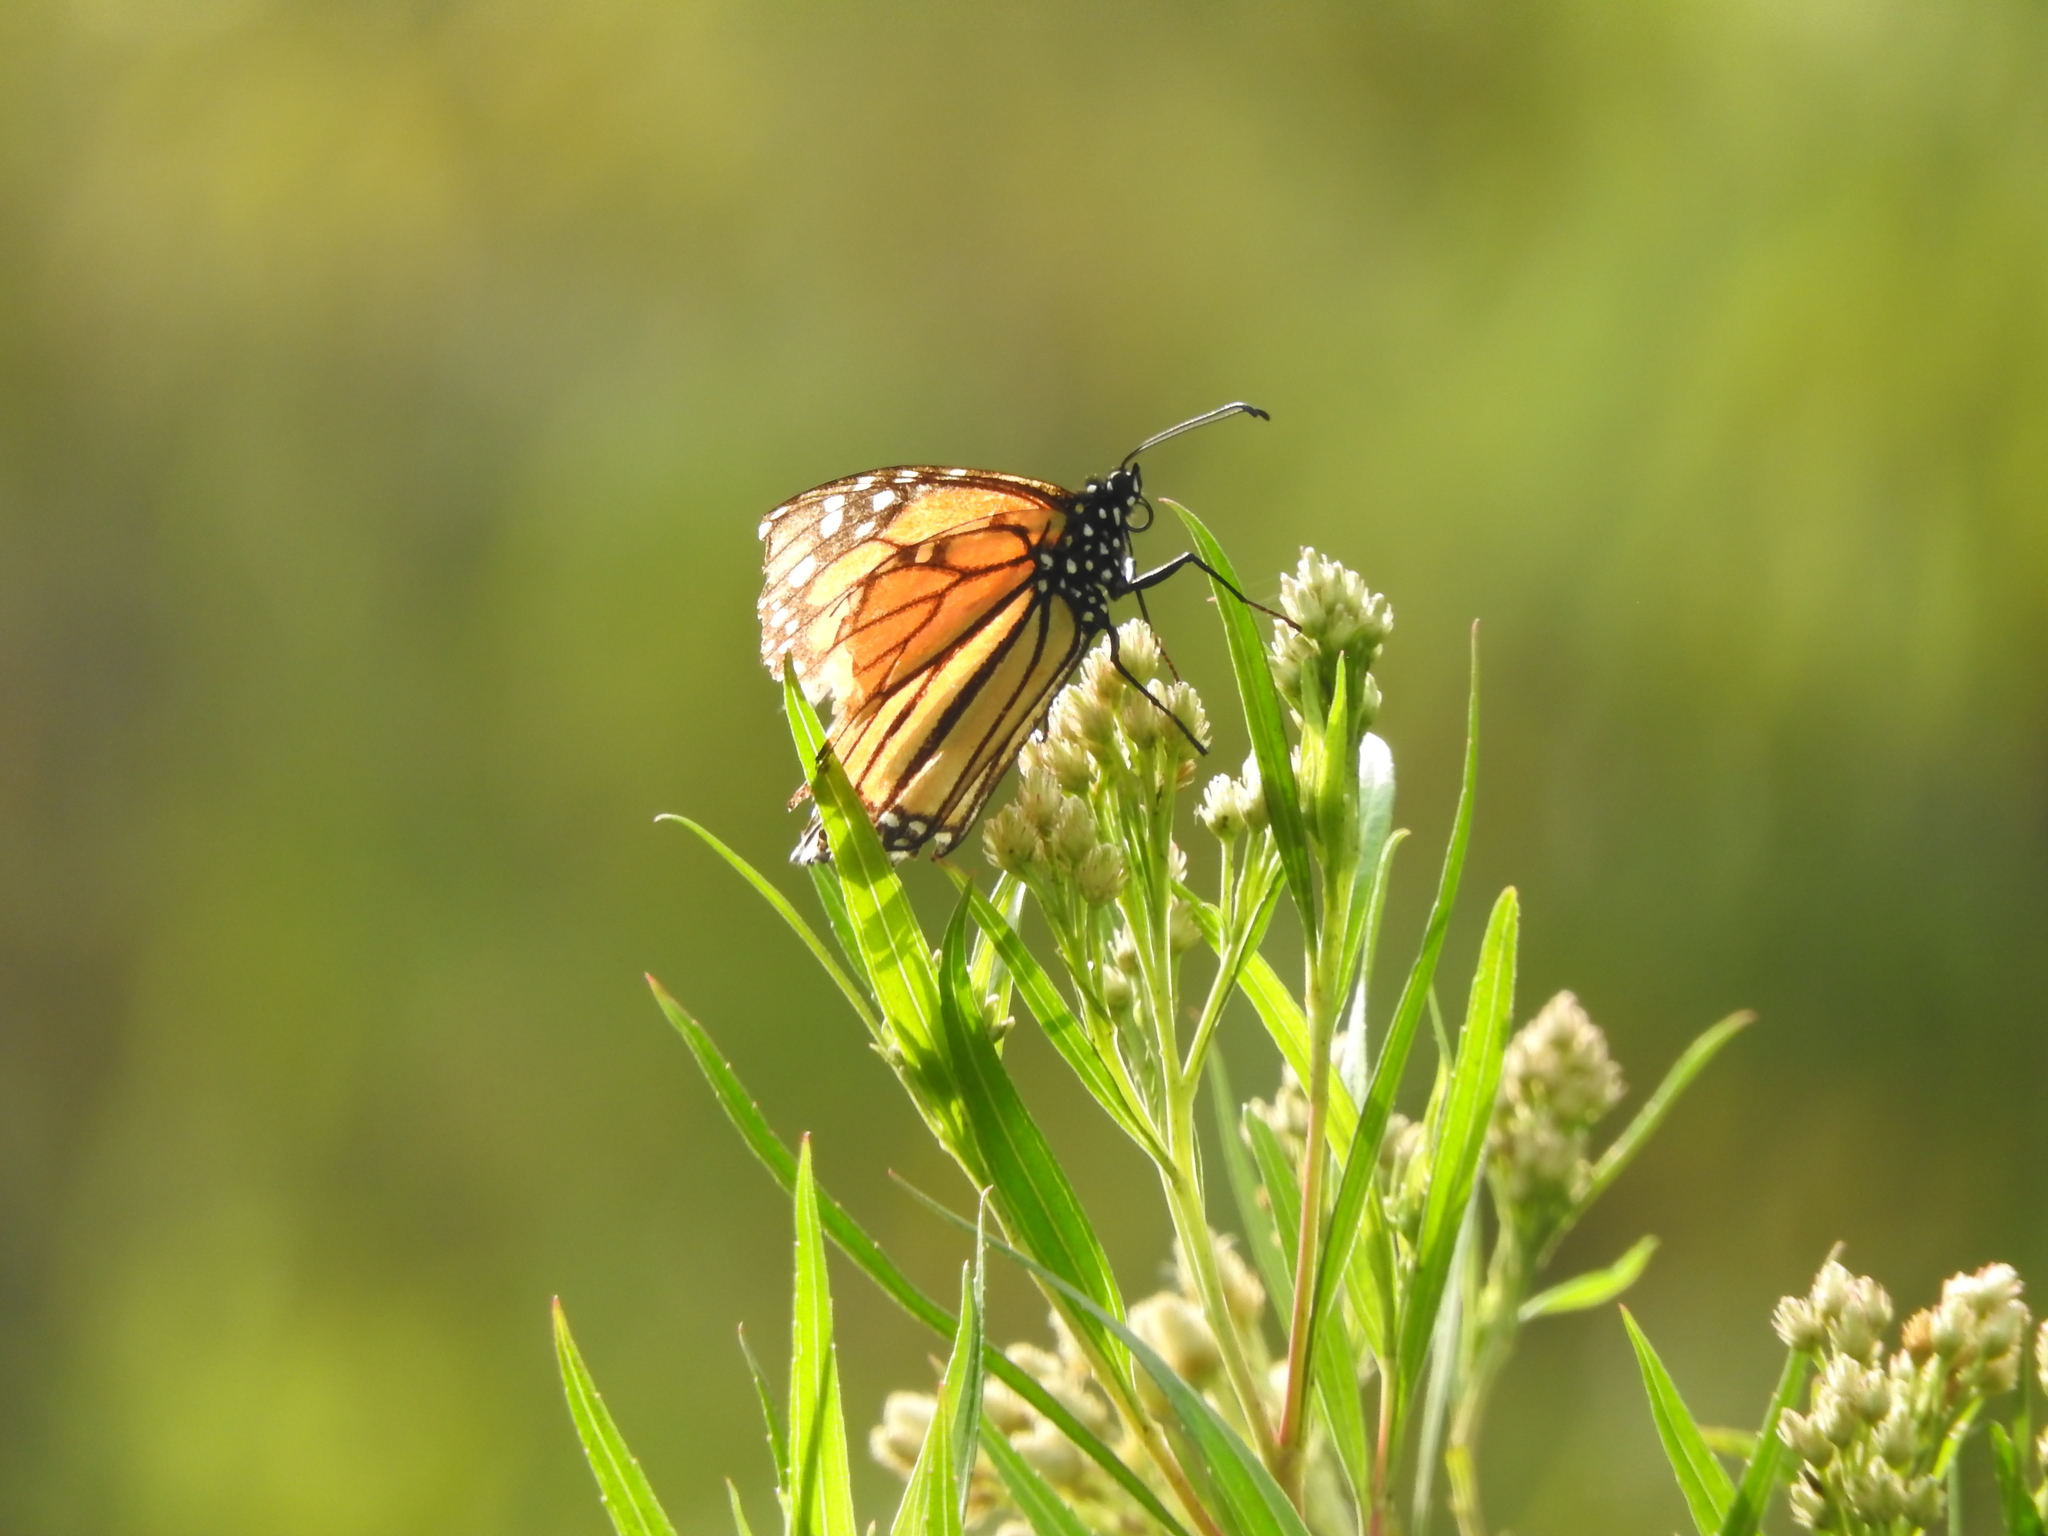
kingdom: Animalia
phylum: Arthropoda
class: Insecta
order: Lepidoptera
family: Nymphalidae
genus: Danaus
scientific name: Danaus plexippus
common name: Monarch
